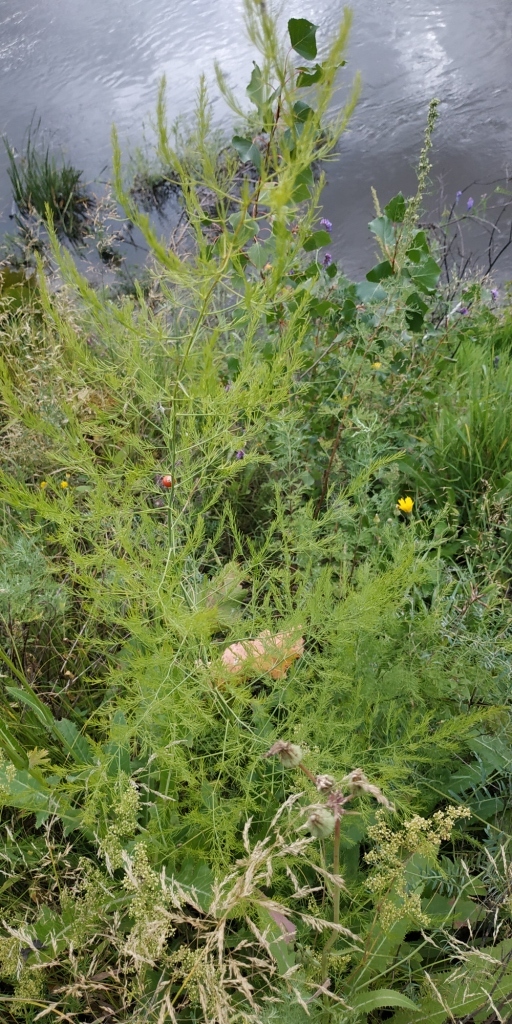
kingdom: Plantae
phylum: Tracheophyta
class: Liliopsida
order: Asparagales
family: Asparagaceae
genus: Asparagus
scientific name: Asparagus officinalis
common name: Garden asparagus
